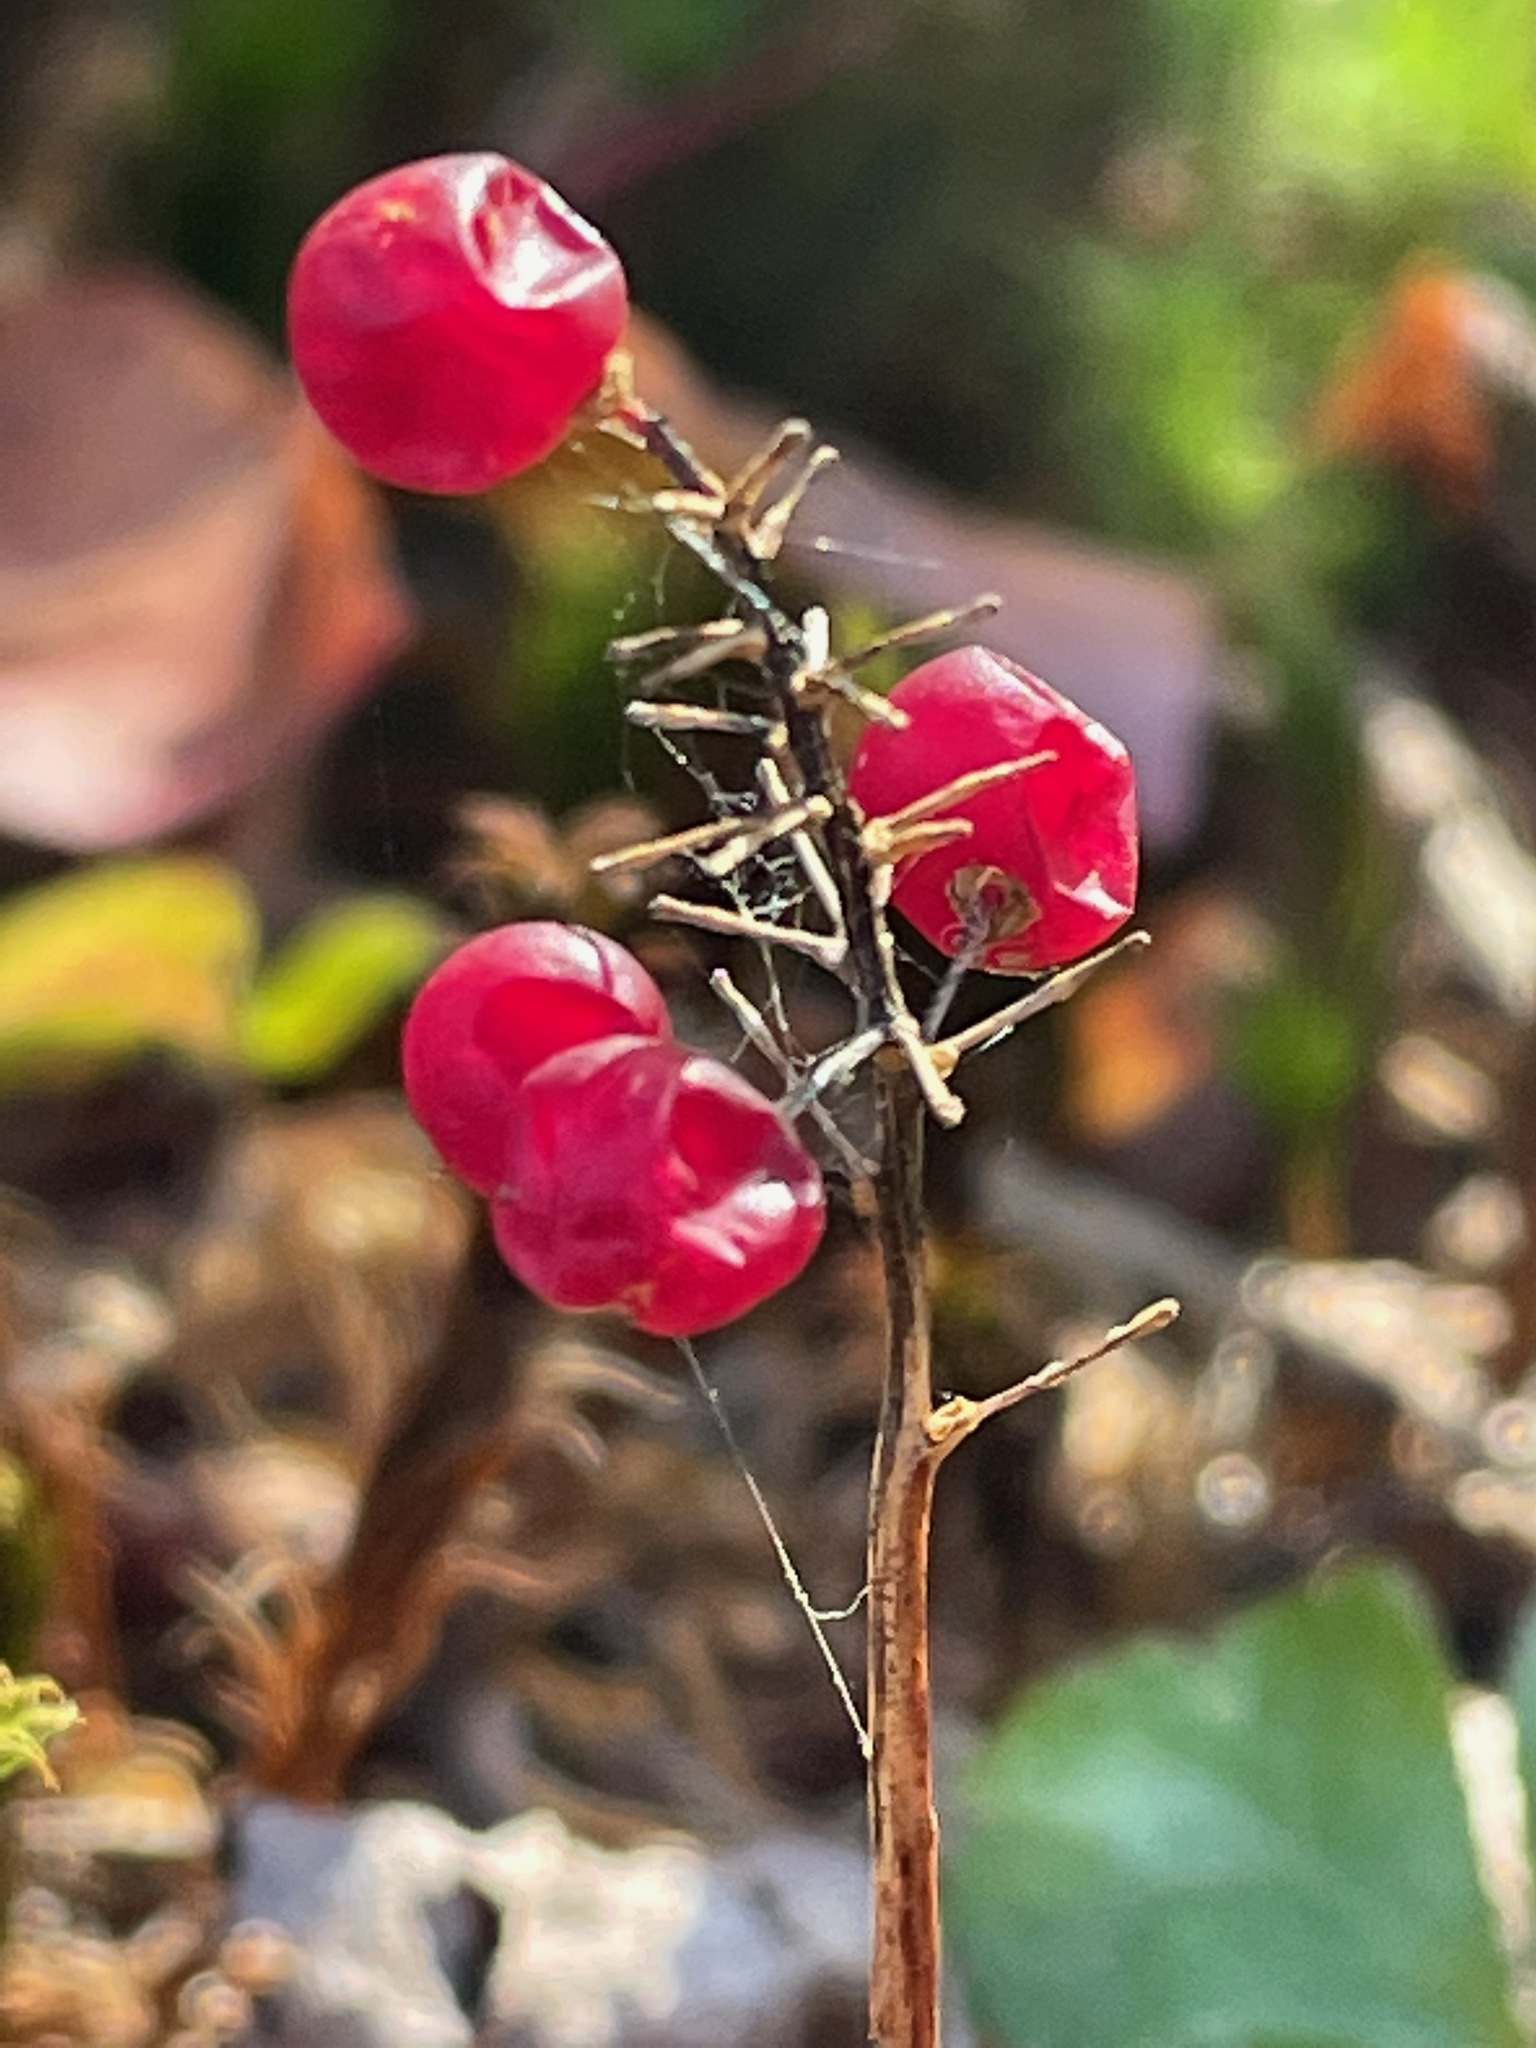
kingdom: Plantae
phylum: Tracheophyta
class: Liliopsida
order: Asparagales
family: Asparagaceae
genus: Maianthemum
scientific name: Maianthemum canadense
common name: False lily-of-the-valley
